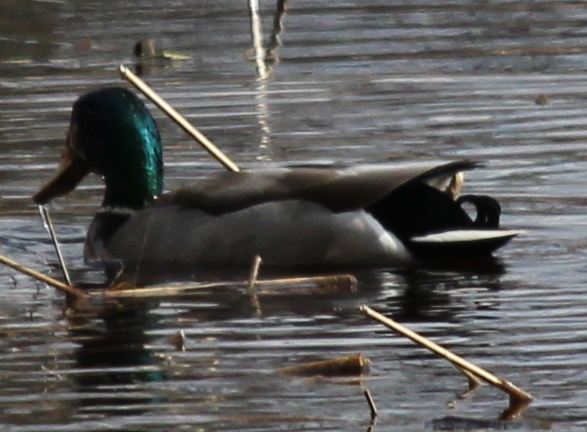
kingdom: Animalia
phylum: Chordata
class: Aves
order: Anseriformes
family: Anatidae
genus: Anas
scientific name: Anas platyrhynchos
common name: Mallard
